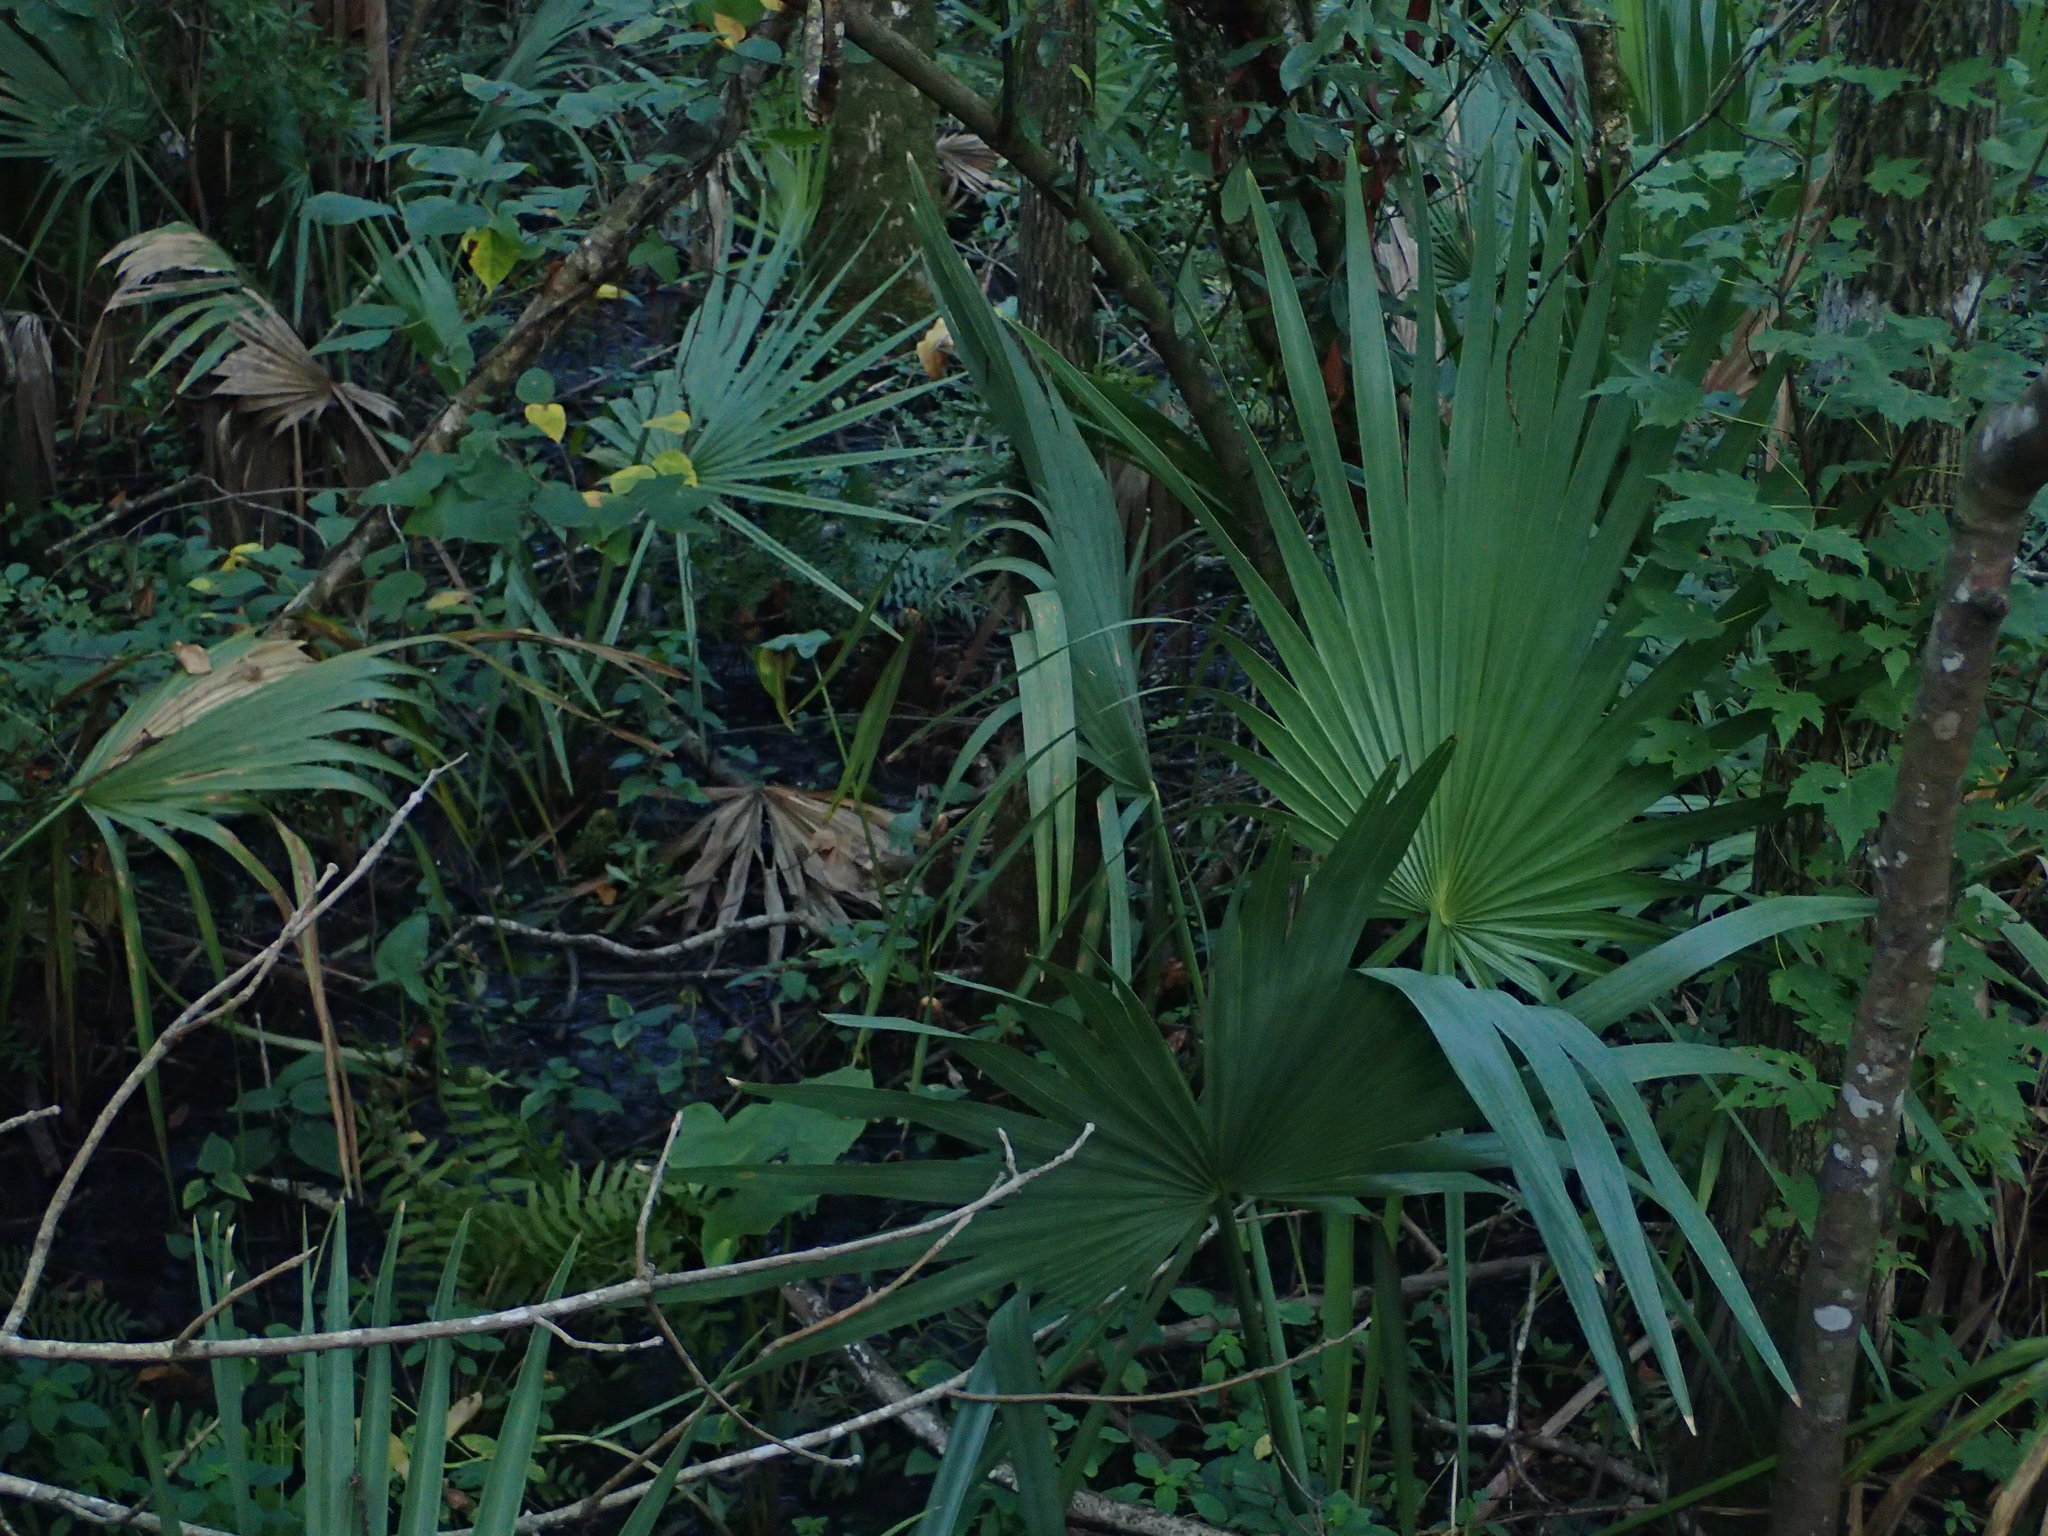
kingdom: Plantae
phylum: Tracheophyta
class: Liliopsida
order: Arecales
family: Arecaceae
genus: Sabal
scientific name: Sabal minor
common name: Dwarf palmetto
